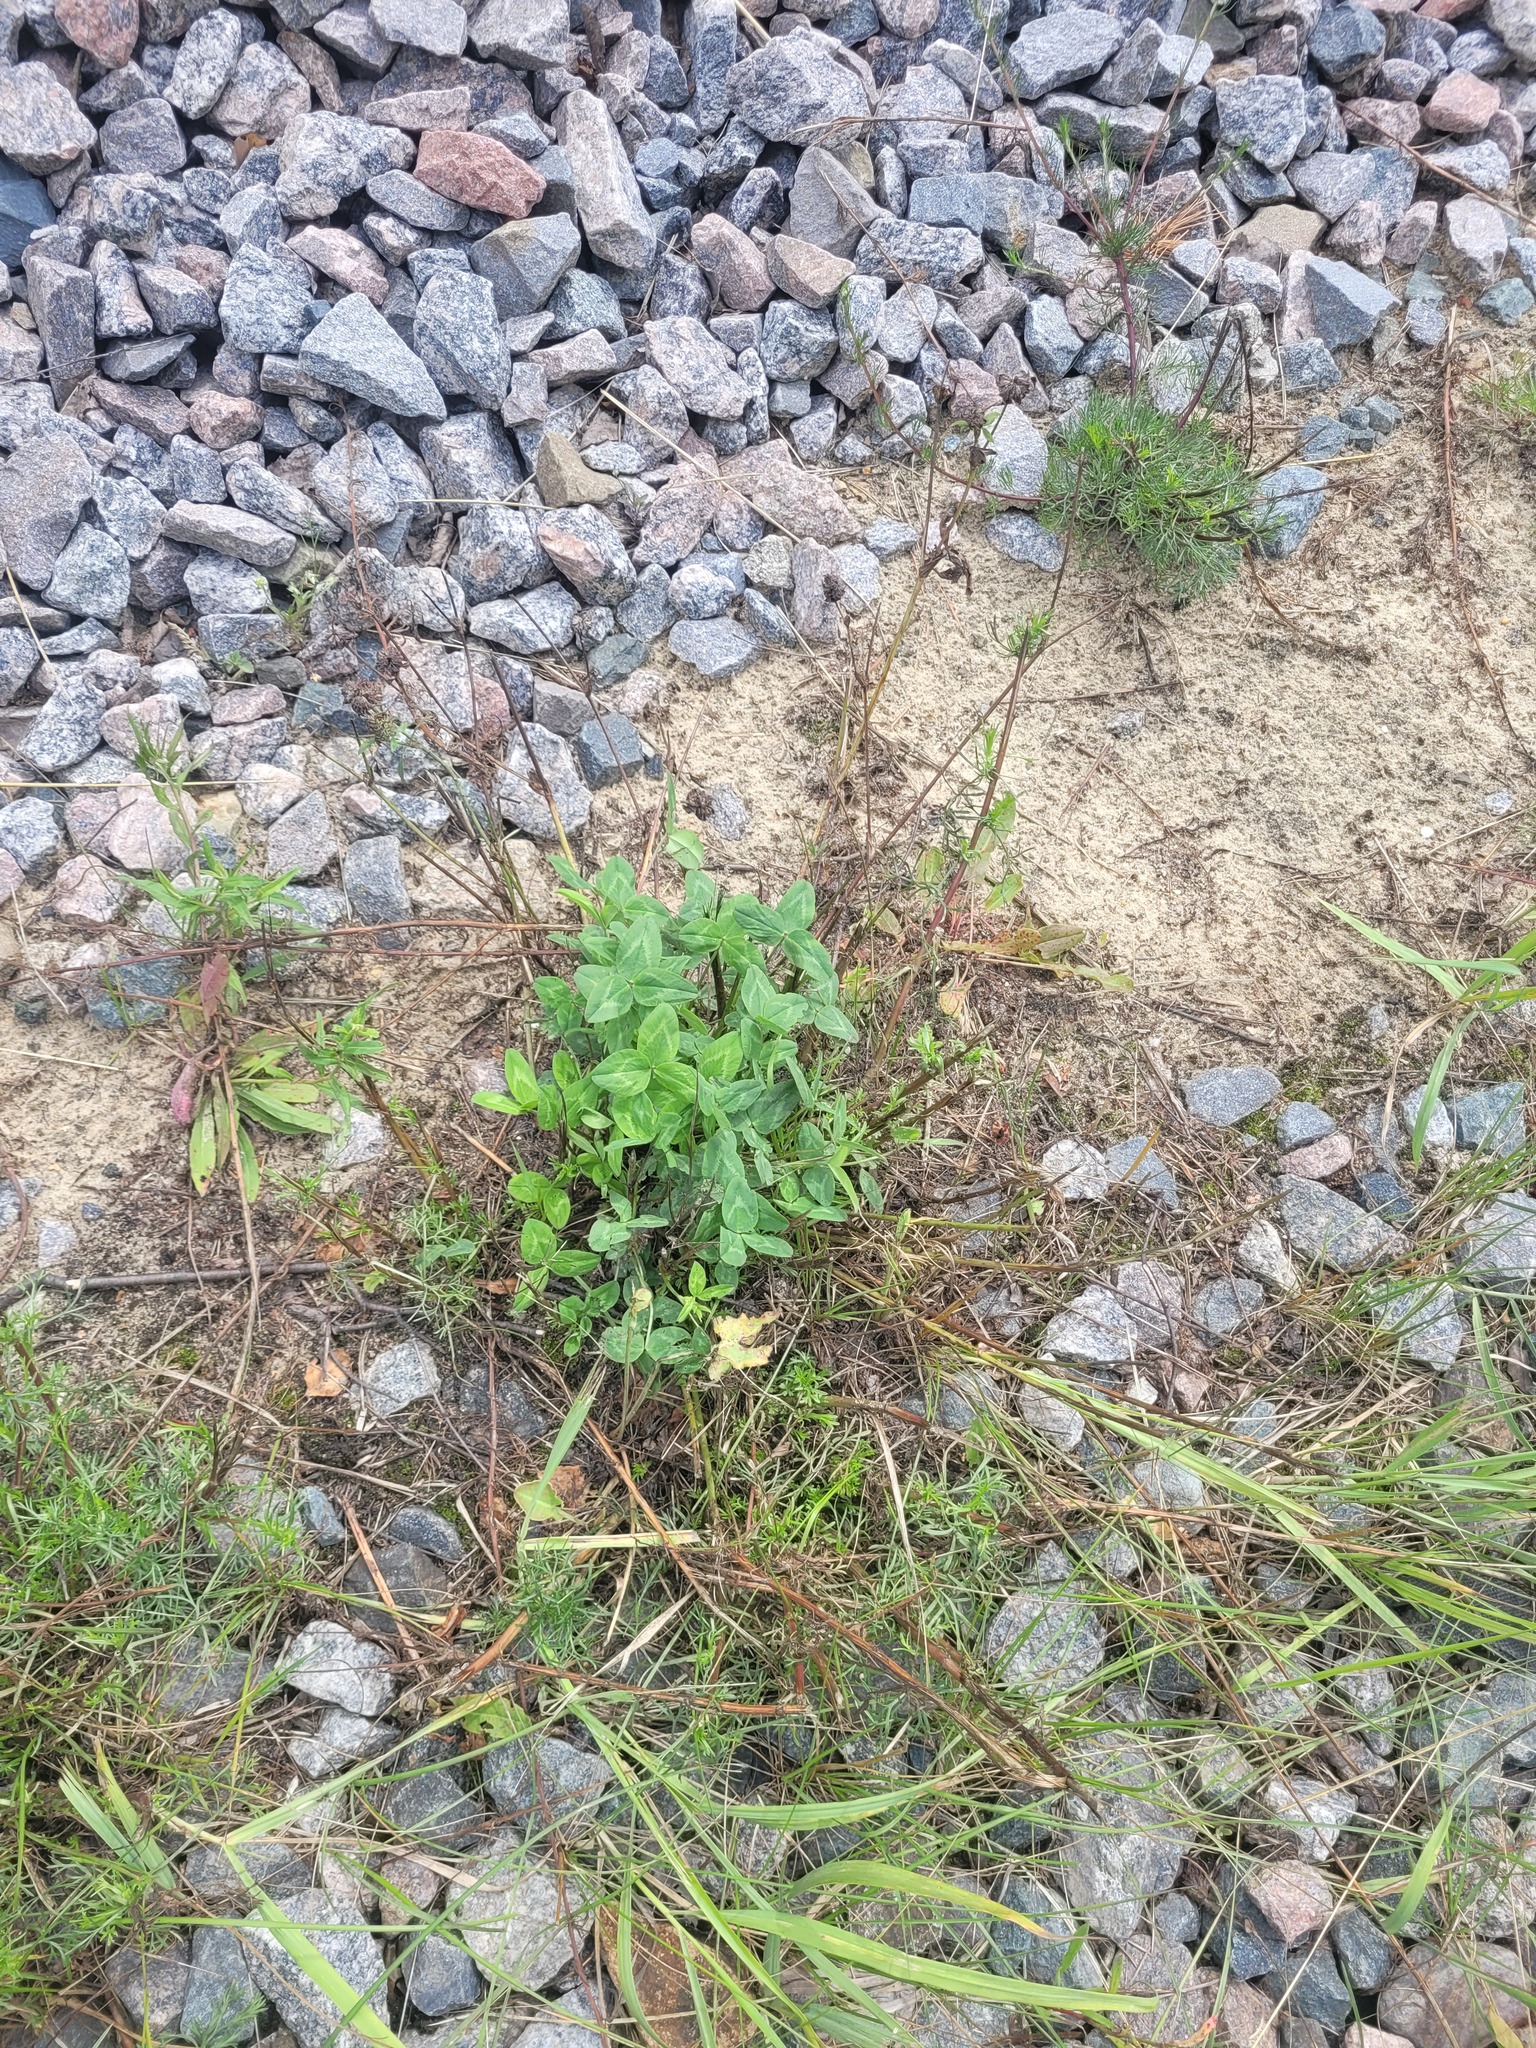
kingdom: Plantae
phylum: Tracheophyta
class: Magnoliopsida
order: Fabales
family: Fabaceae
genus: Trifolium
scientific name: Trifolium pratense
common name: Red clover
